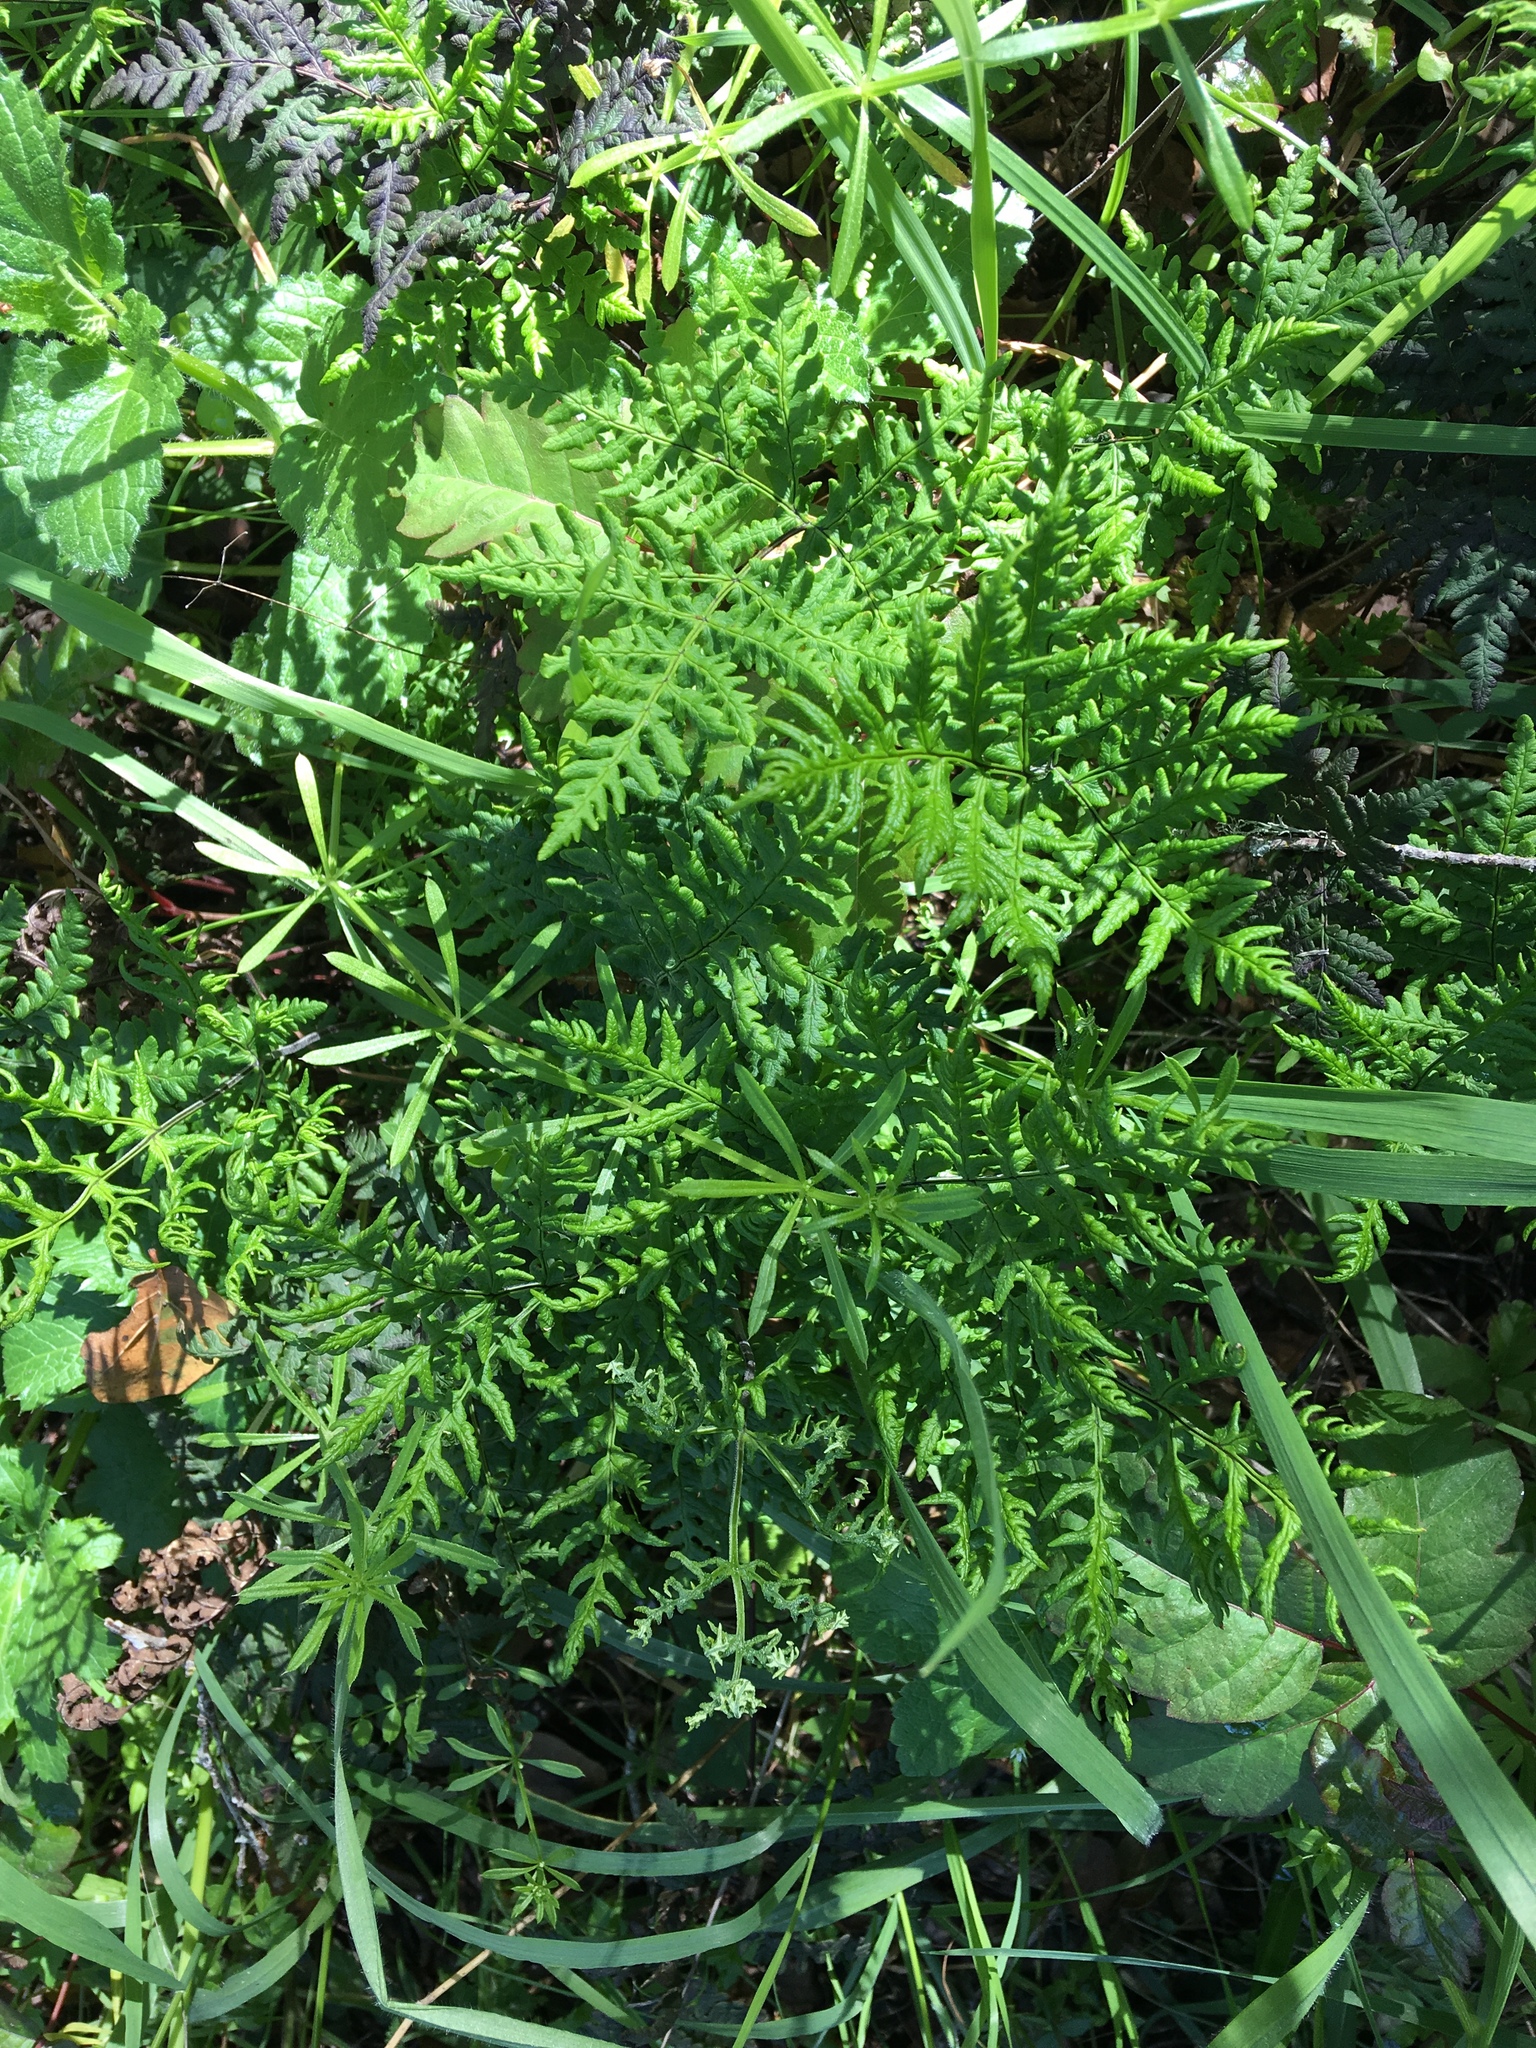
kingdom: Plantae
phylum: Tracheophyta
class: Polypodiopsida
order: Polypodiales
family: Pteridaceae
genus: Pentagramma
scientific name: Pentagramma triangularis
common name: Gold fern
